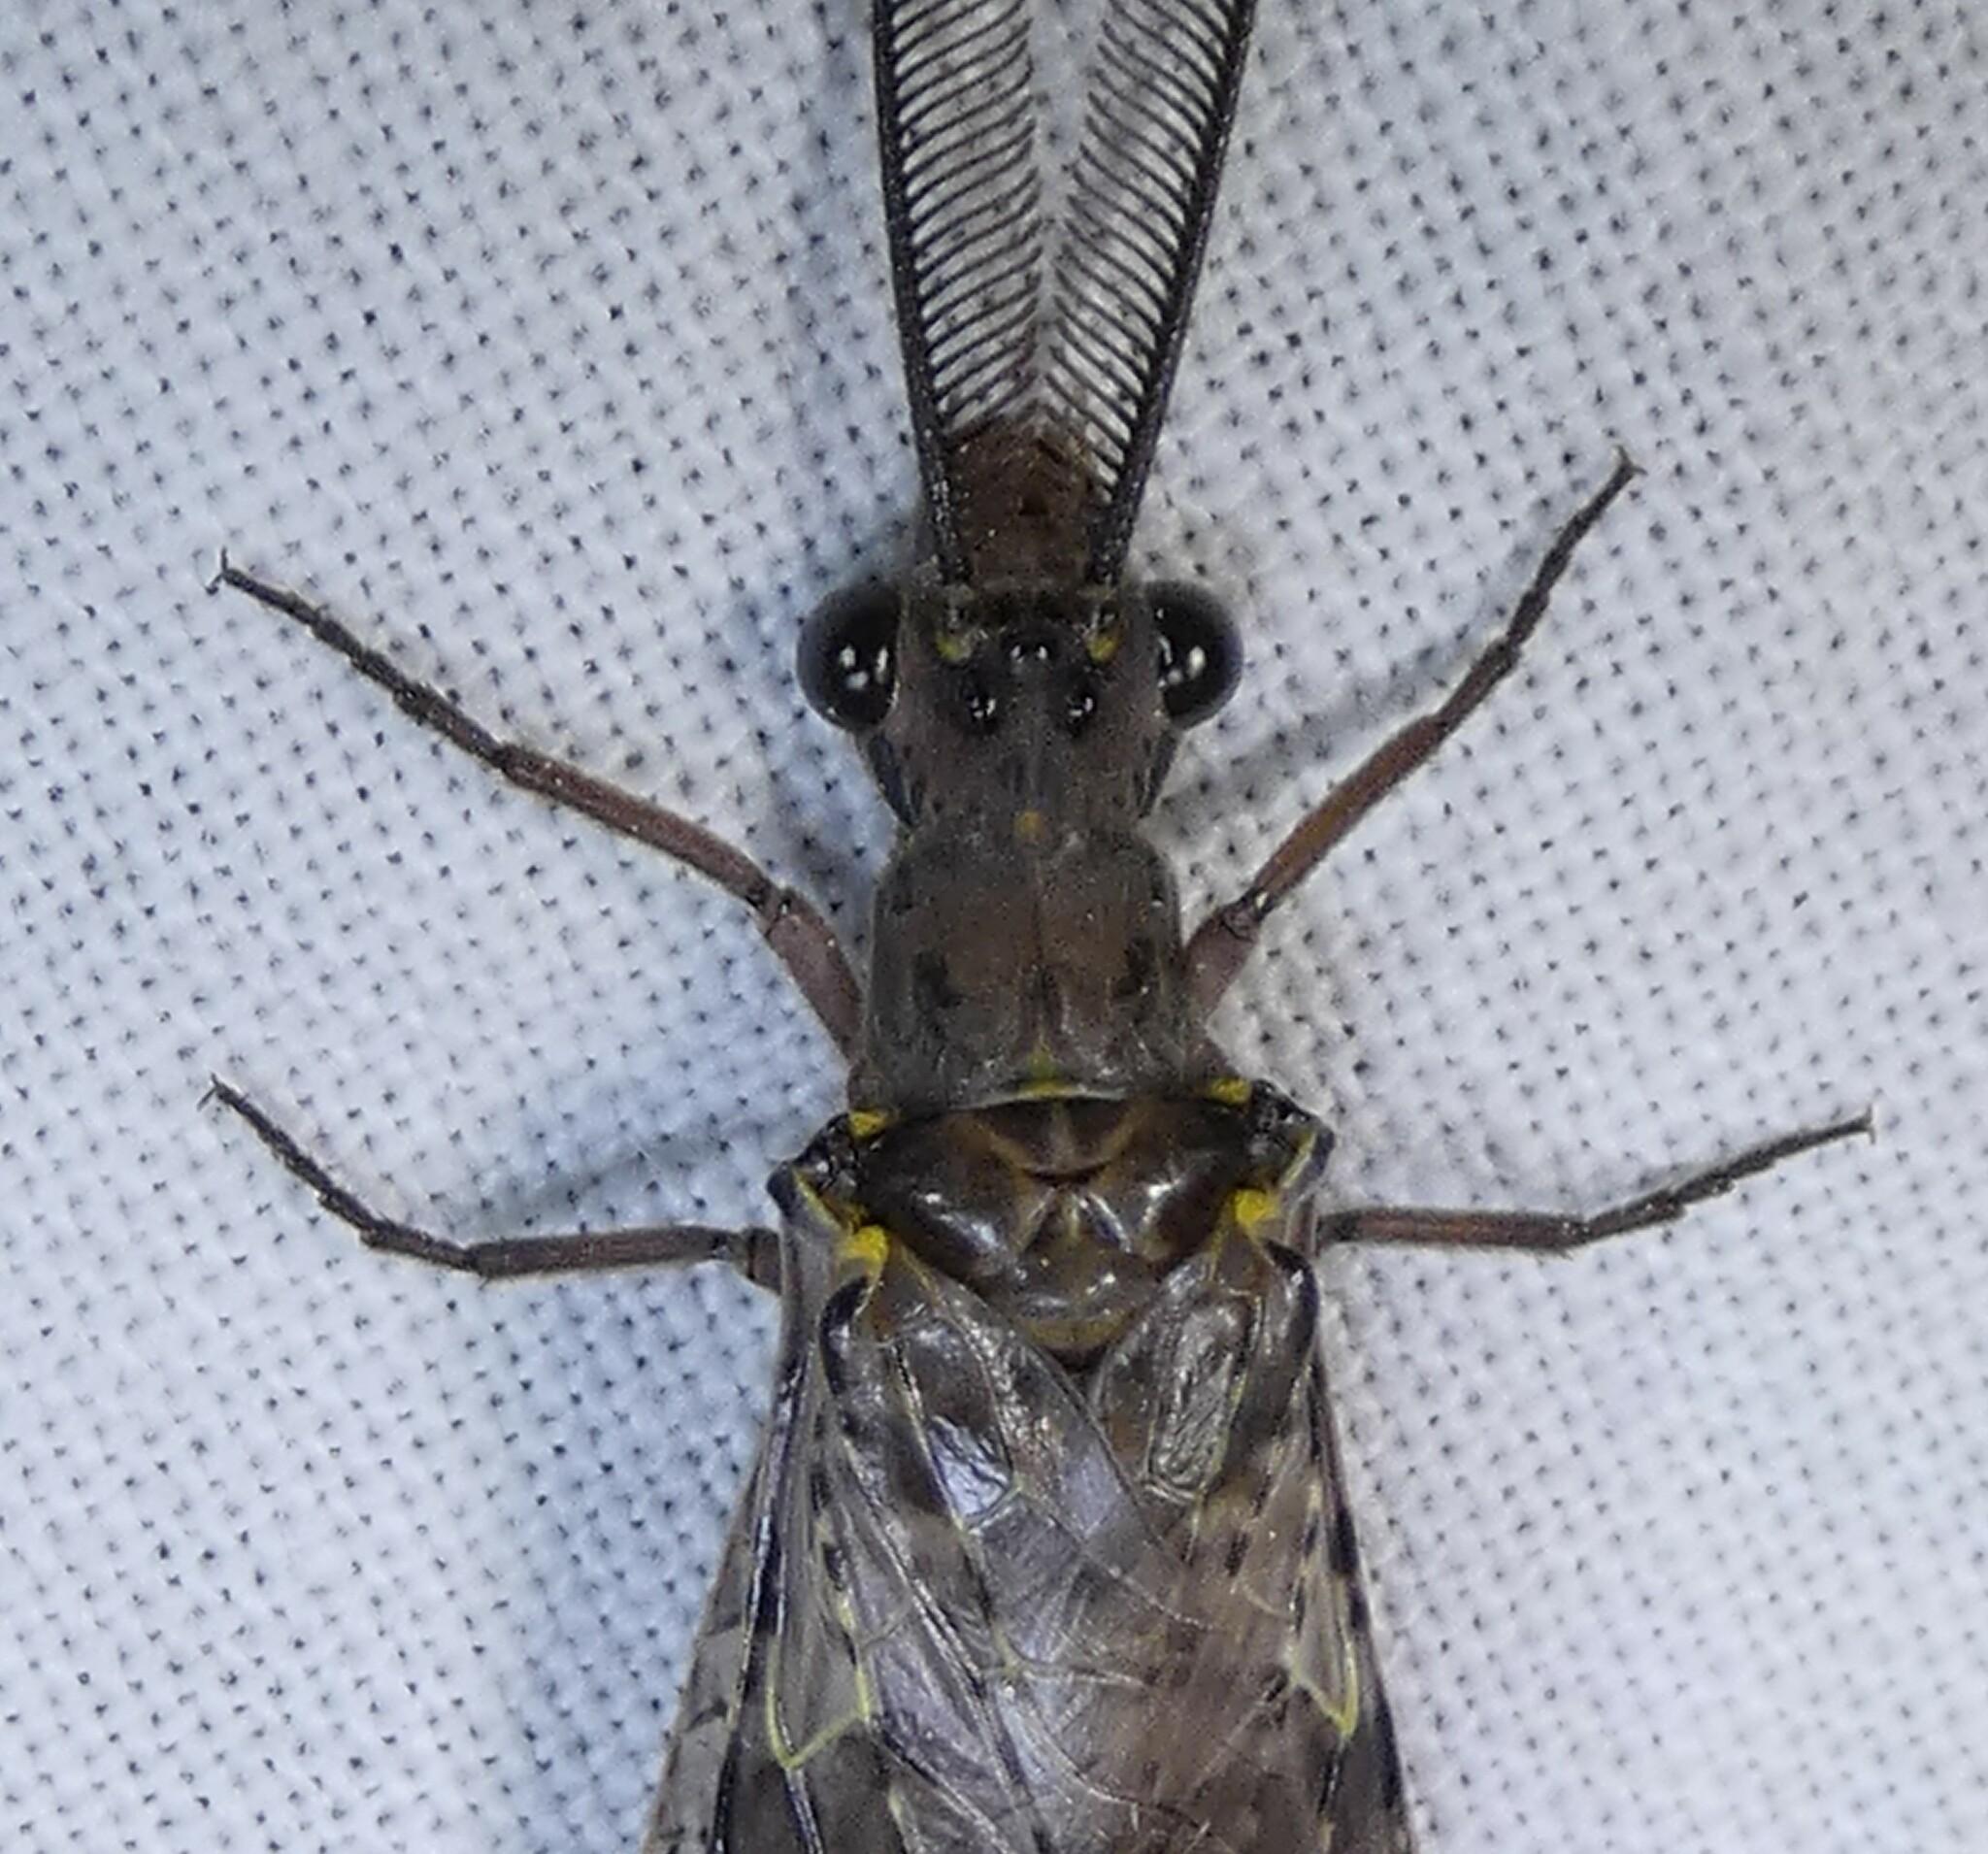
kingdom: Animalia
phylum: Arthropoda
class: Insecta
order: Megaloptera
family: Corydalidae
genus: Chauliodes
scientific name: Chauliodes rastricornis
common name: Spring fishfly
